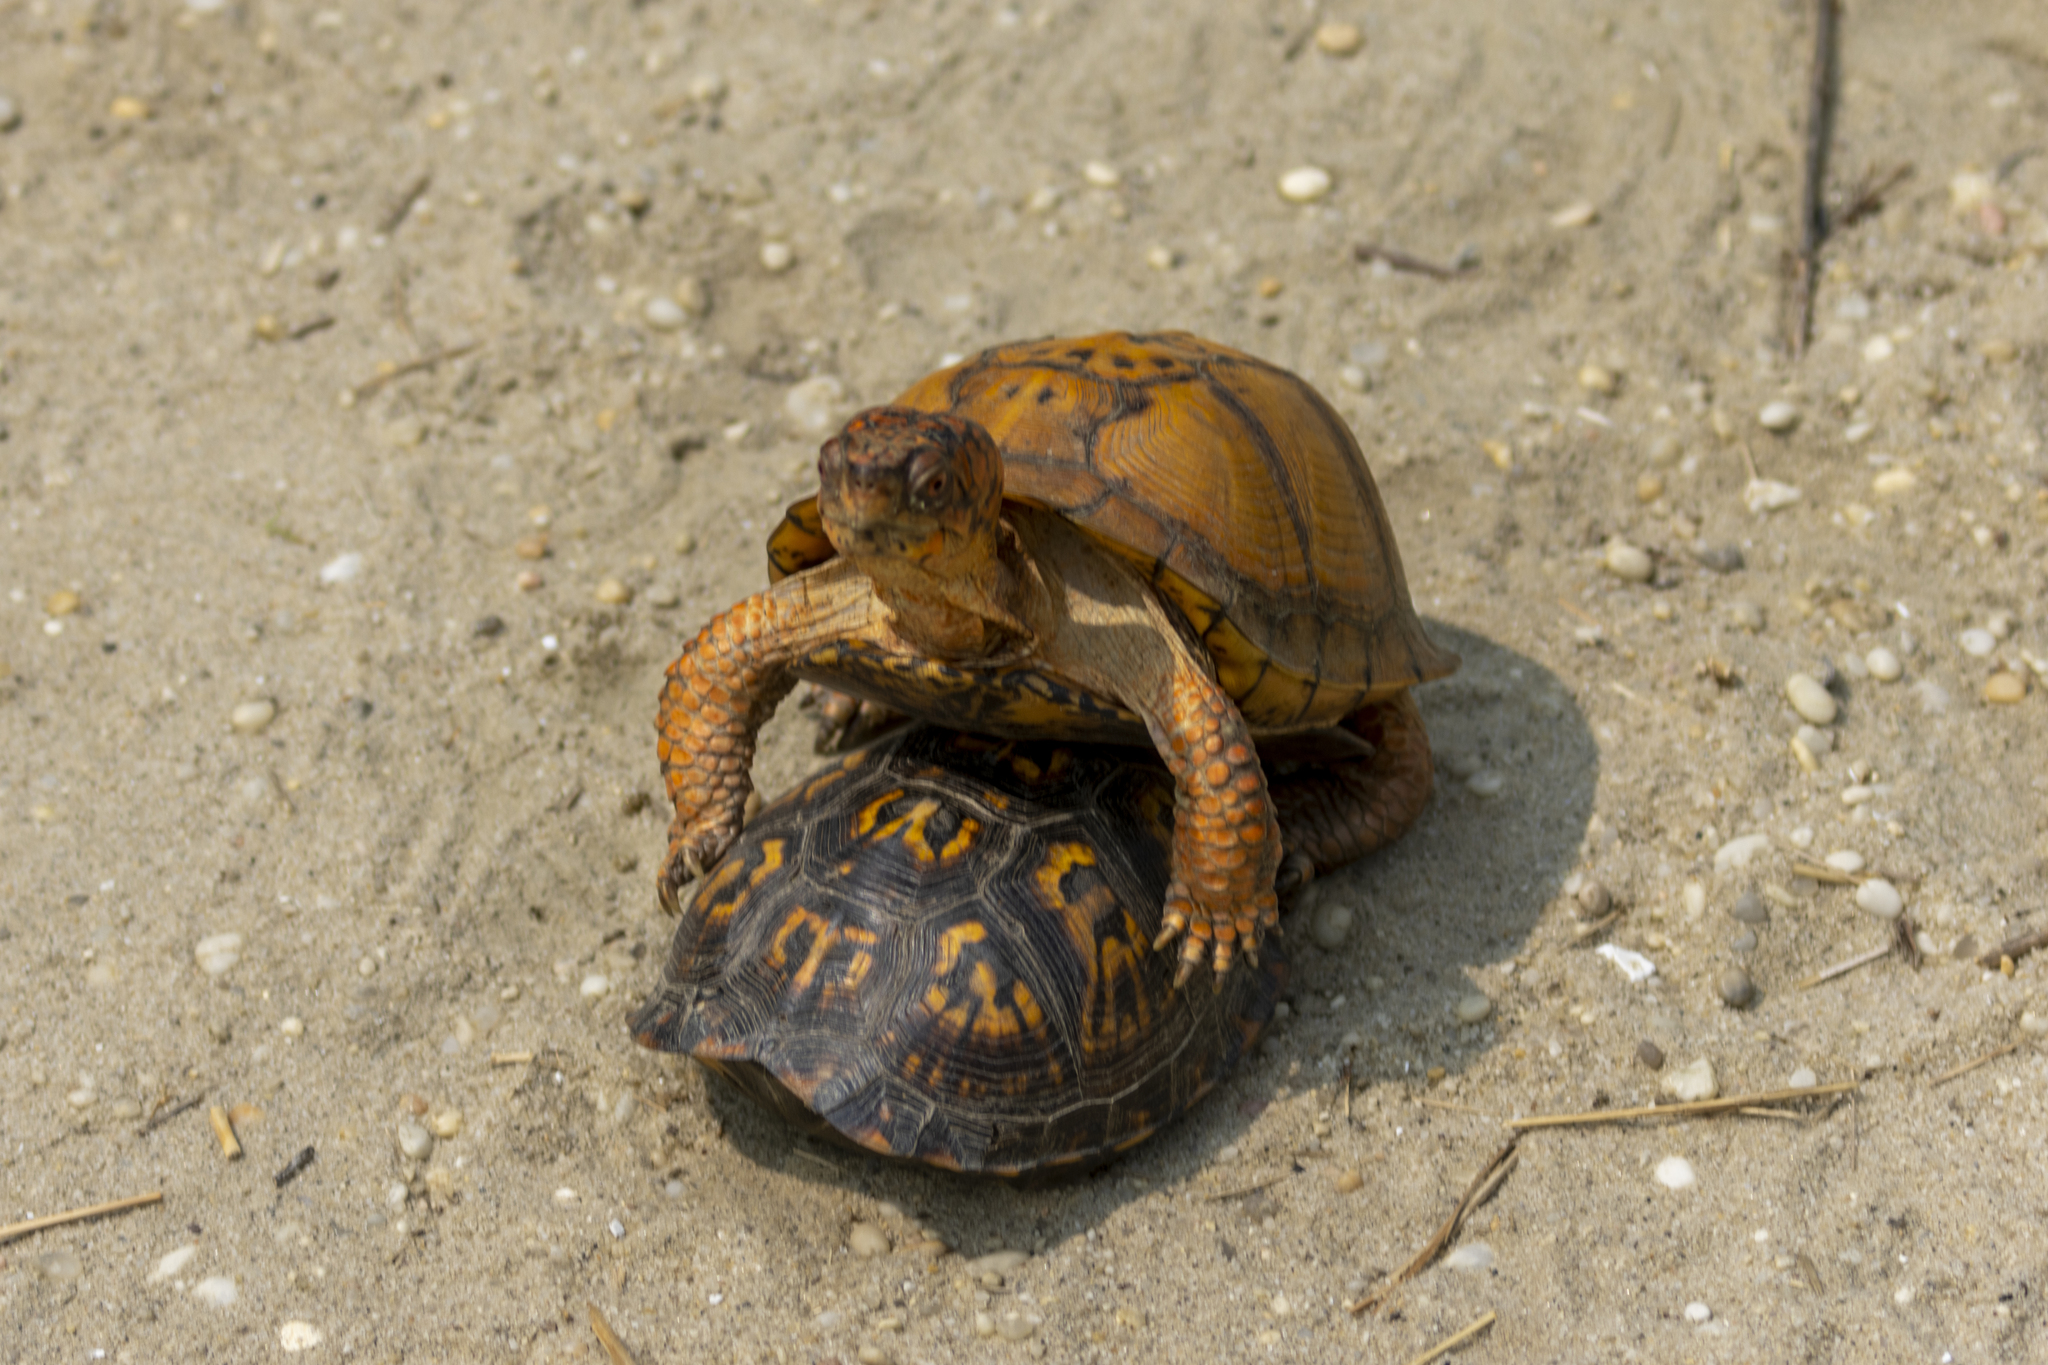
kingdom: Animalia
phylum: Chordata
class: Testudines
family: Emydidae
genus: Terrapene
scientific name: Terrapene carolina
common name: Common box turtle
